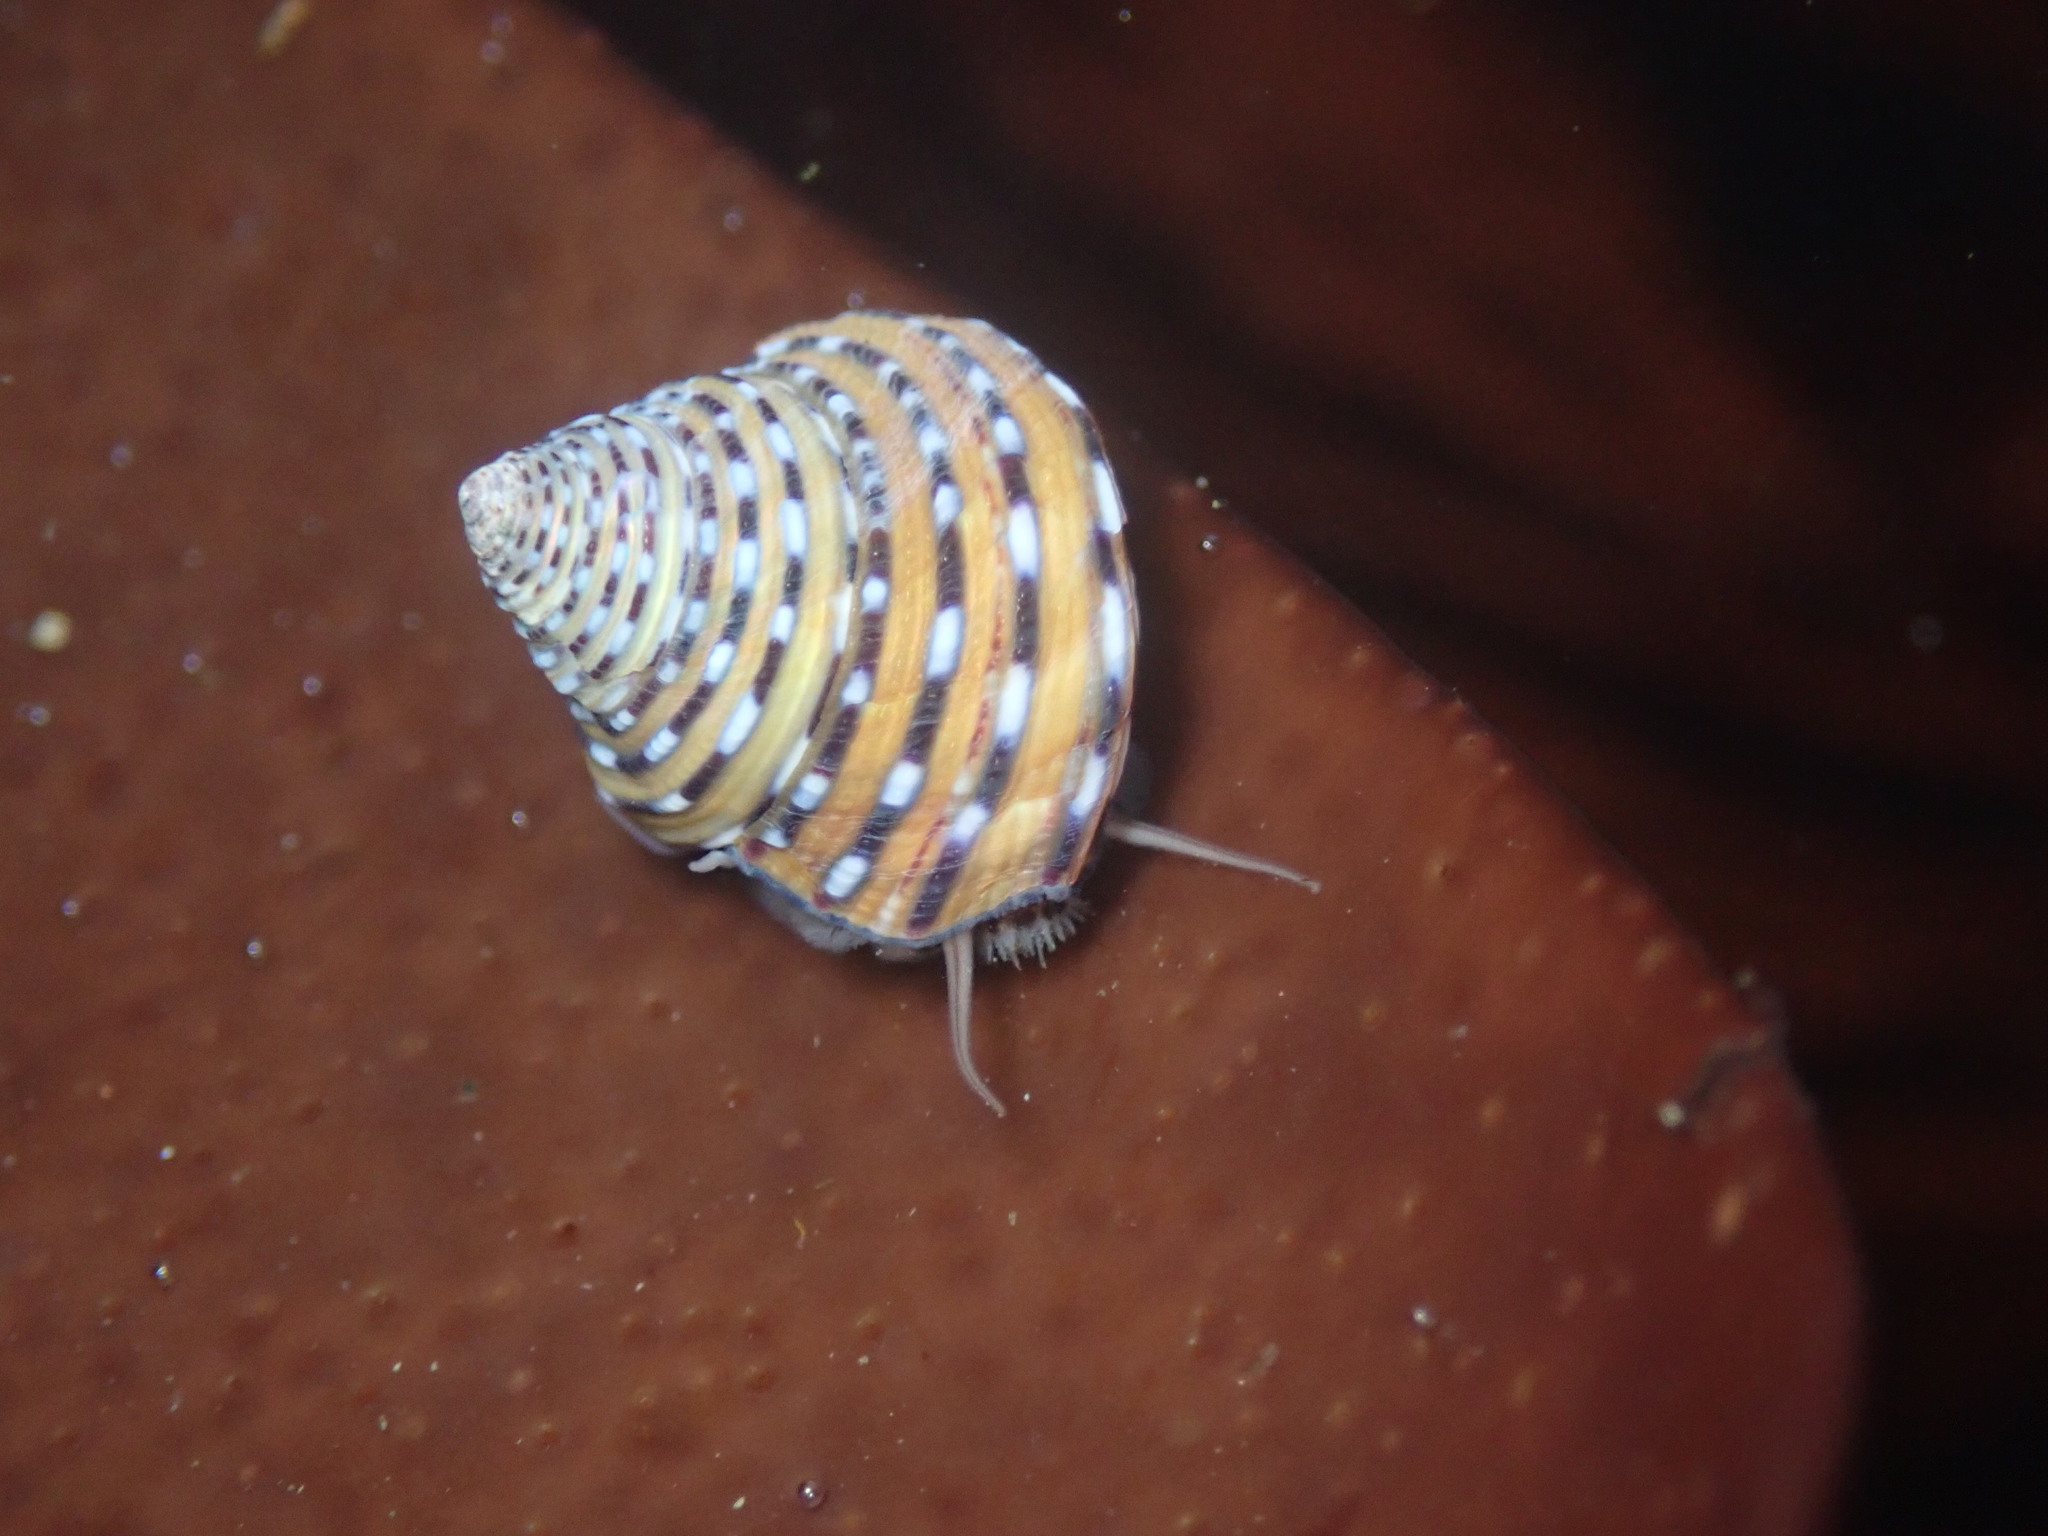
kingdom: Animalia
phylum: Mollusca
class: Gastropoda
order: Trochida
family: Calliostomatidae
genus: Calliostoma
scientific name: Calliostoma tricolor
